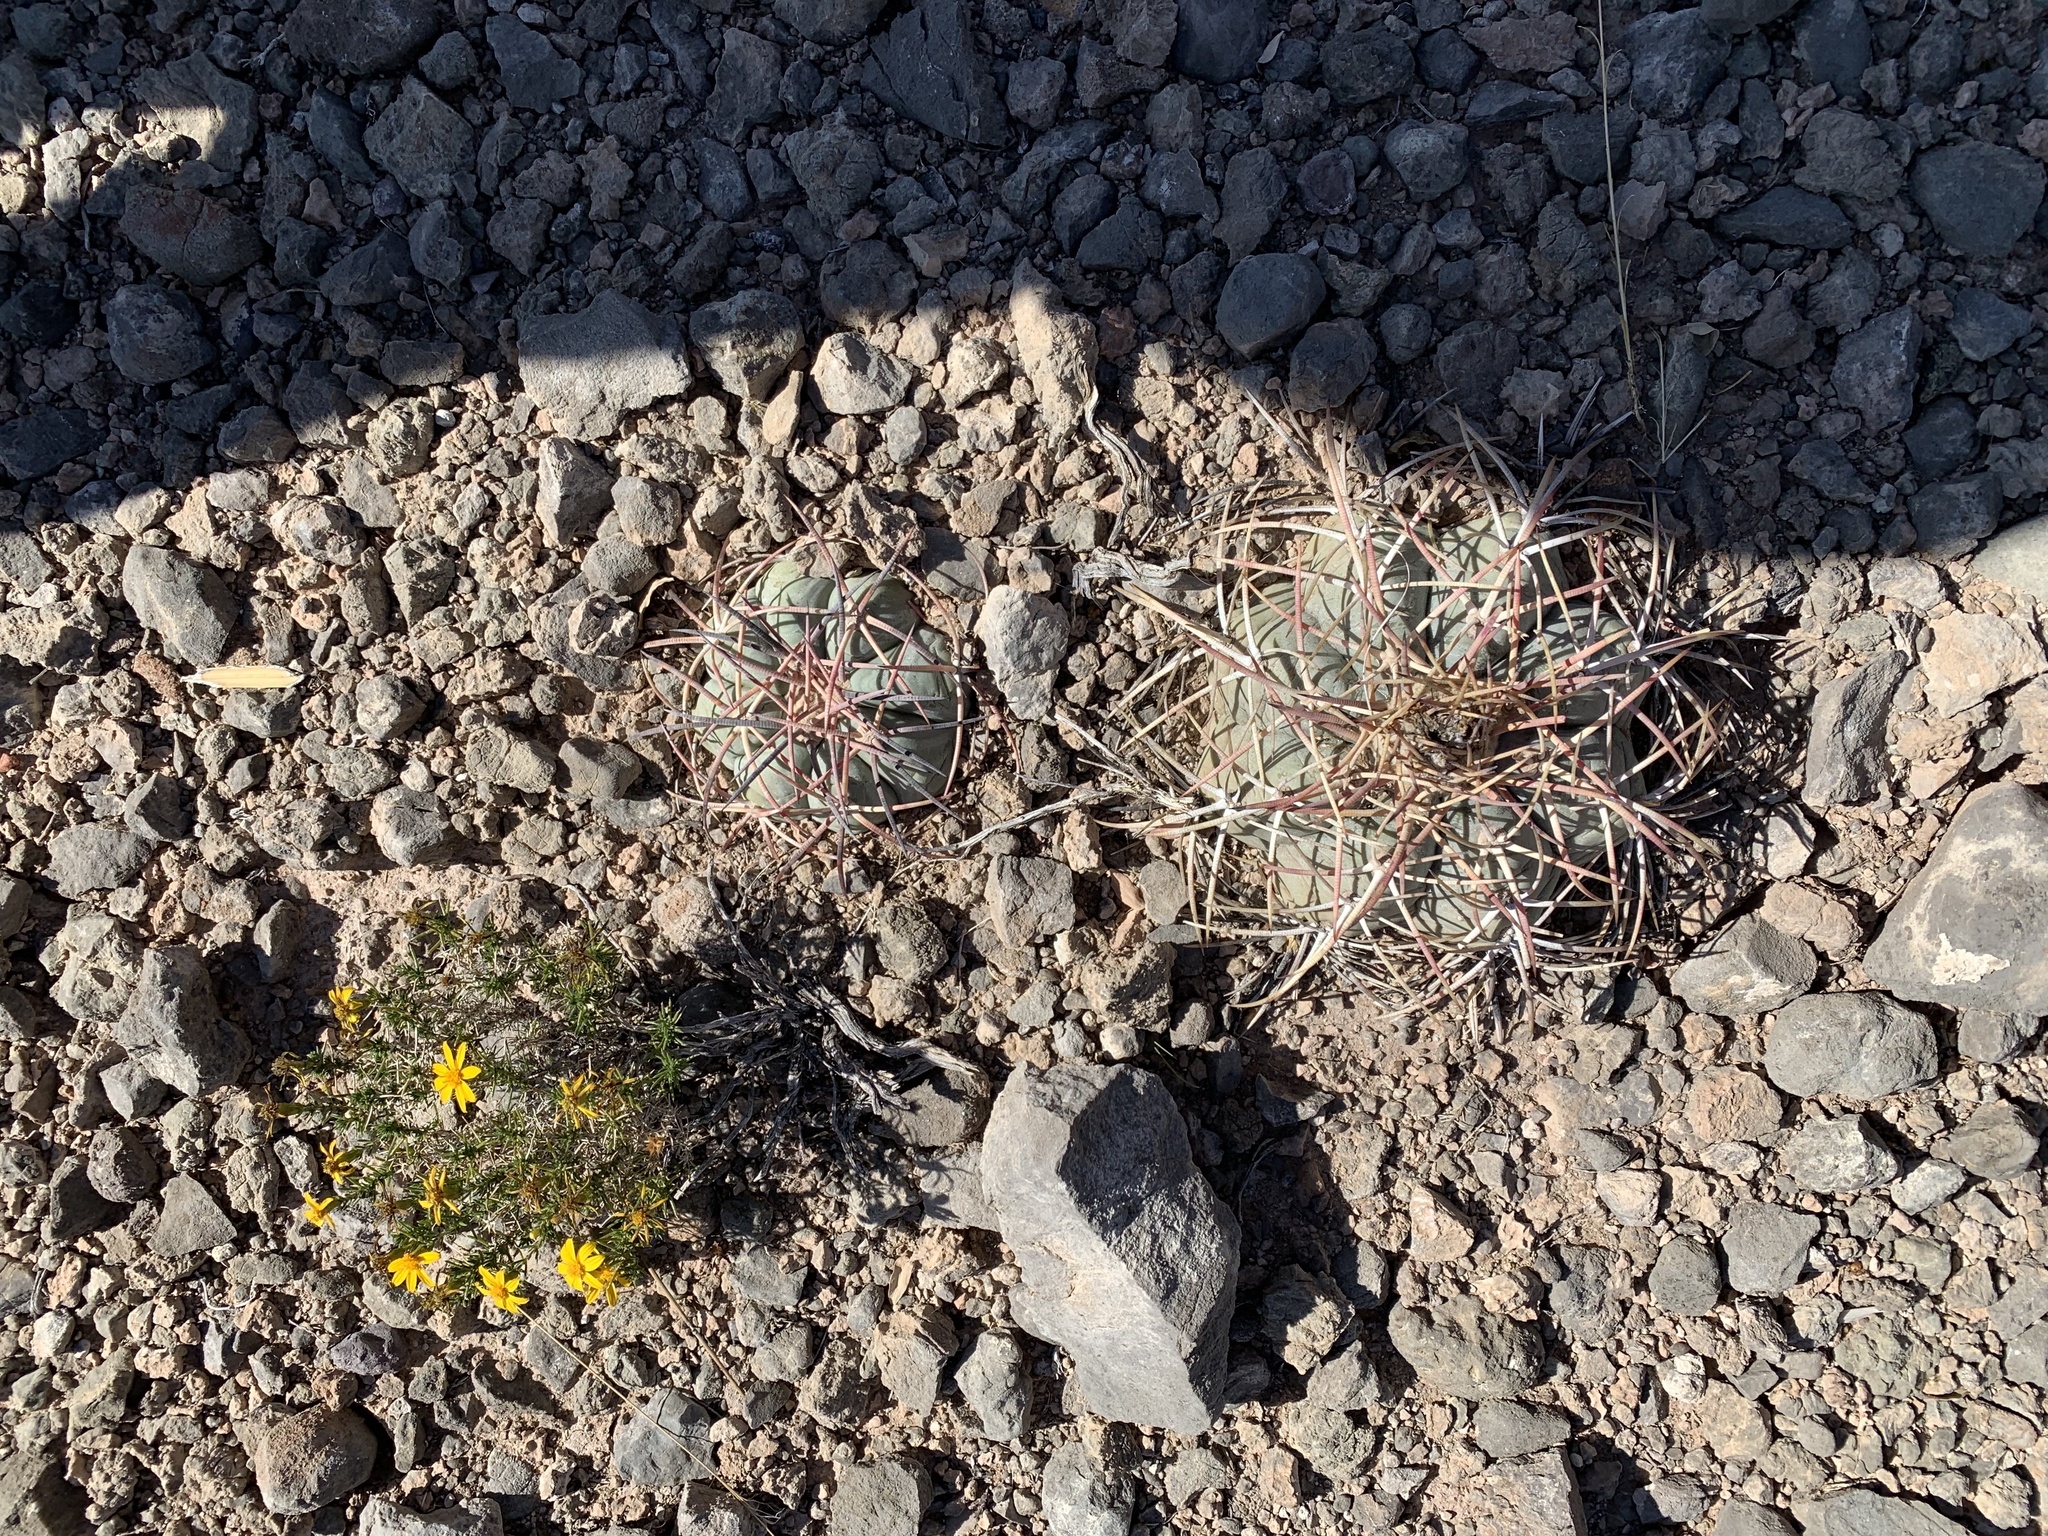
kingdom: Plantae
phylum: Tracheophyta
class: Magnoliopsida
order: Caryophyllales
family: Cactaceae
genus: Echinocactus
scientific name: Echinocactus horizonthalonius
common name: Devilshead
